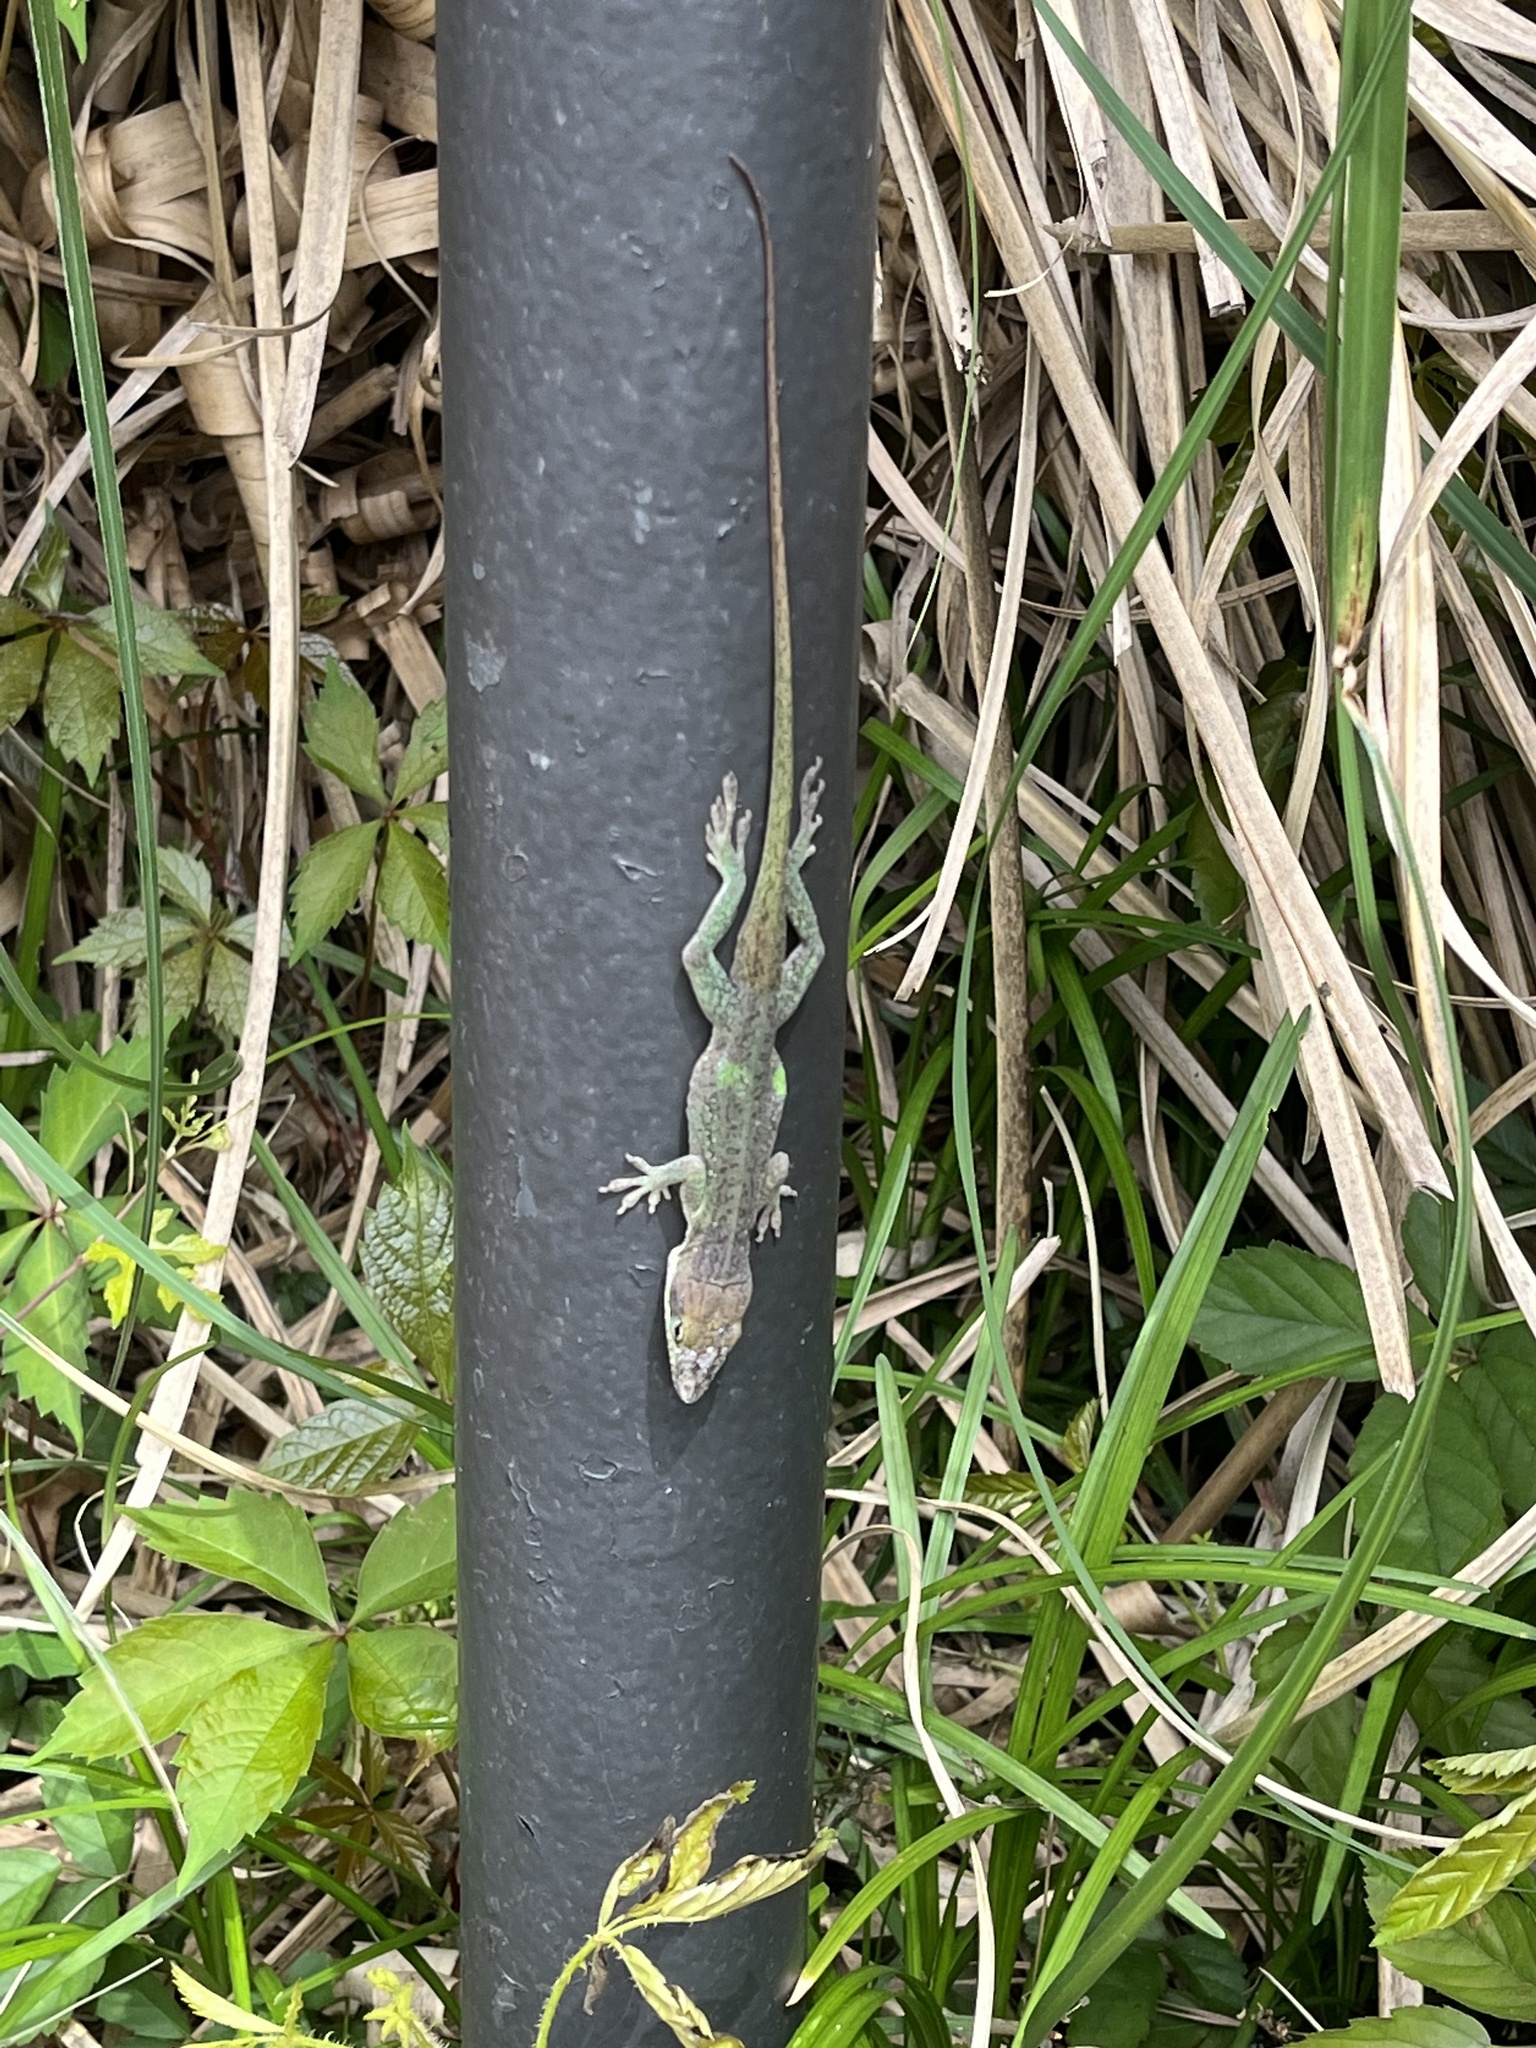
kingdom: Animalia
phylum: Chordata
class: Squamata
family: Dactyloidae
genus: Anolis
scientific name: Anolis carolinensis
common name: Green anole
